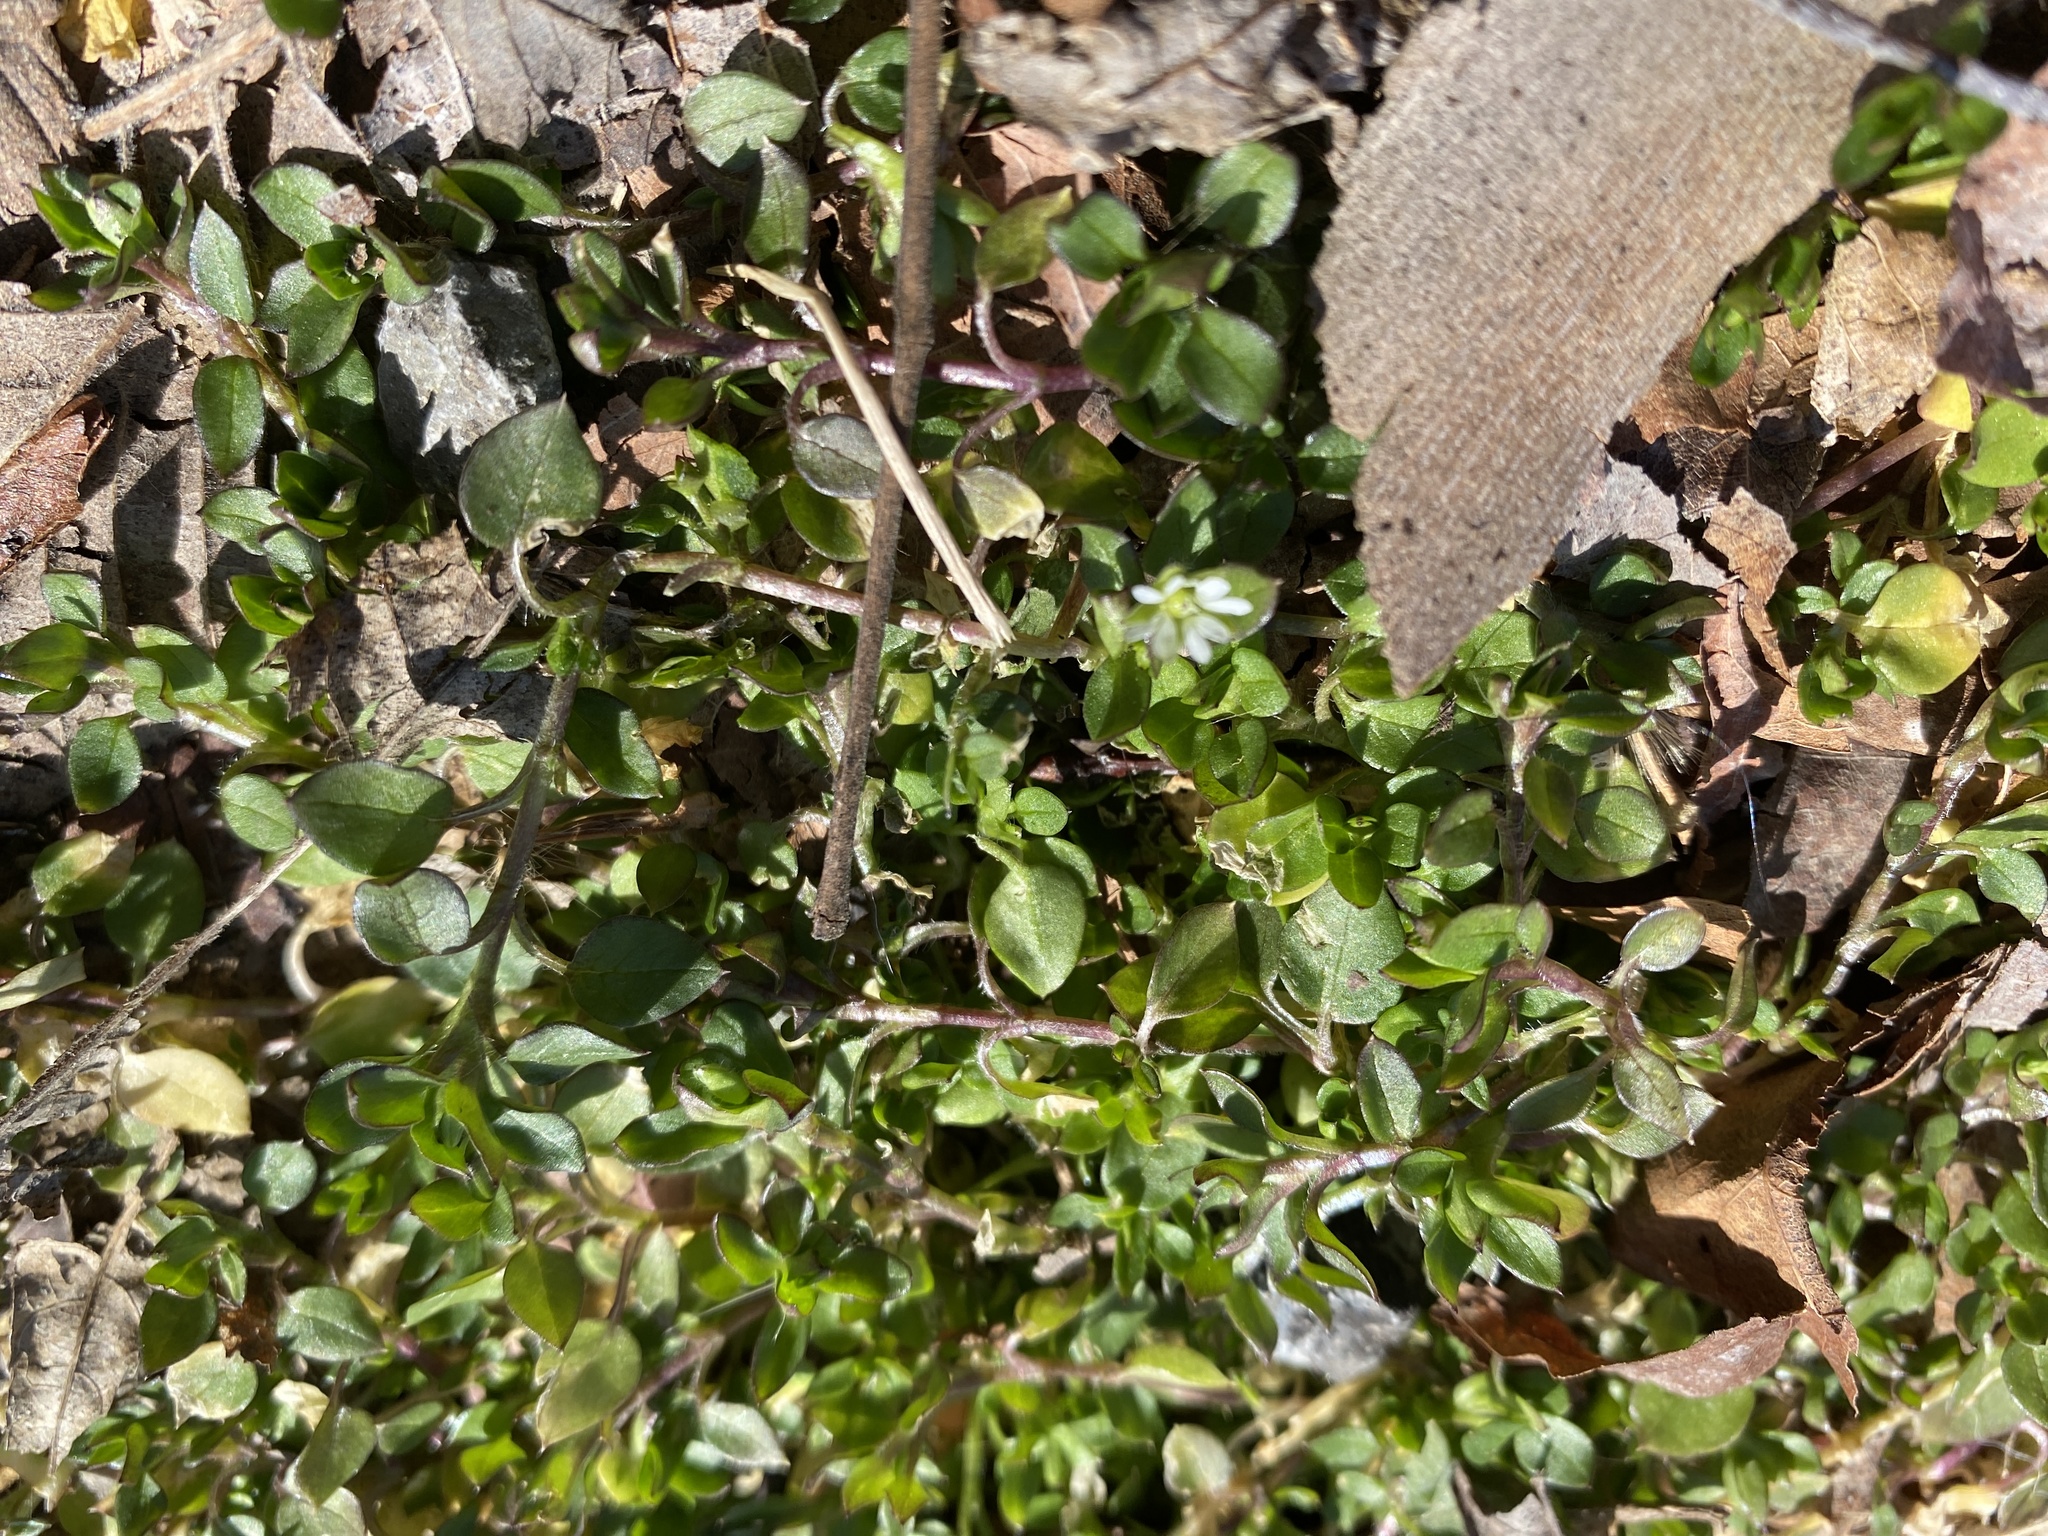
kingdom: Plantae
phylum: Tracheophyta
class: Magnoliopsida
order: Caryophyllales
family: Caryophyllaceae
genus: Stellaria
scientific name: Stellaria media
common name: Common chickweed
